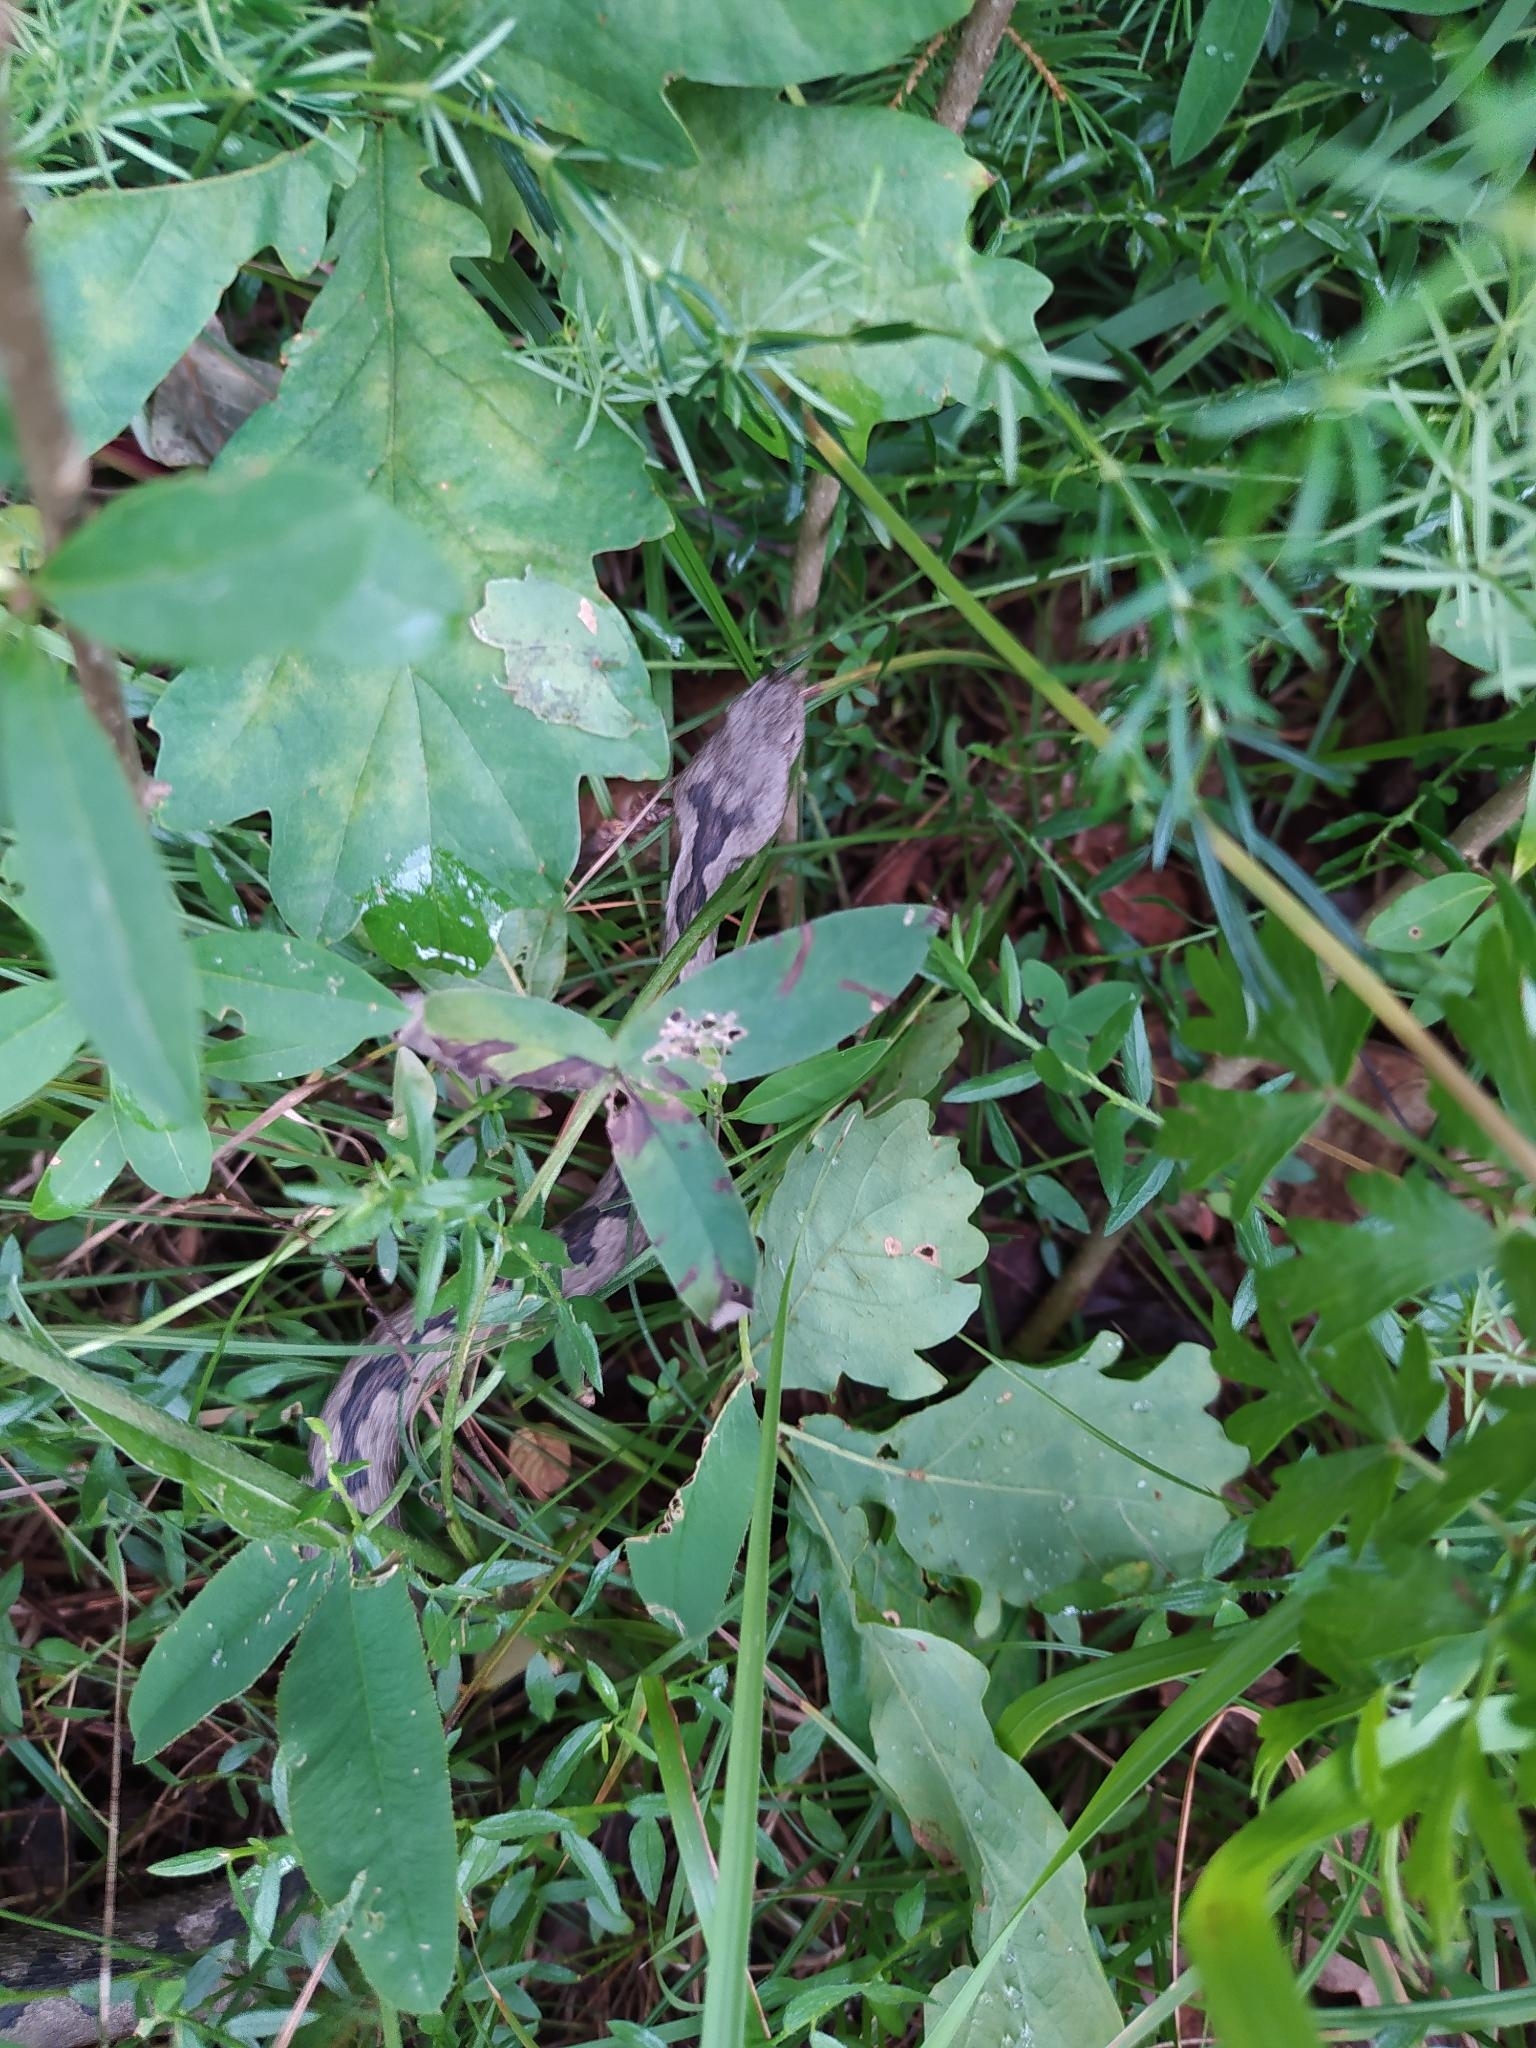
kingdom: Animalia
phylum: Chordata
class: Squamata
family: Viperidae
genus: Vipera
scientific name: Vipera ammodytes
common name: Sand viper
